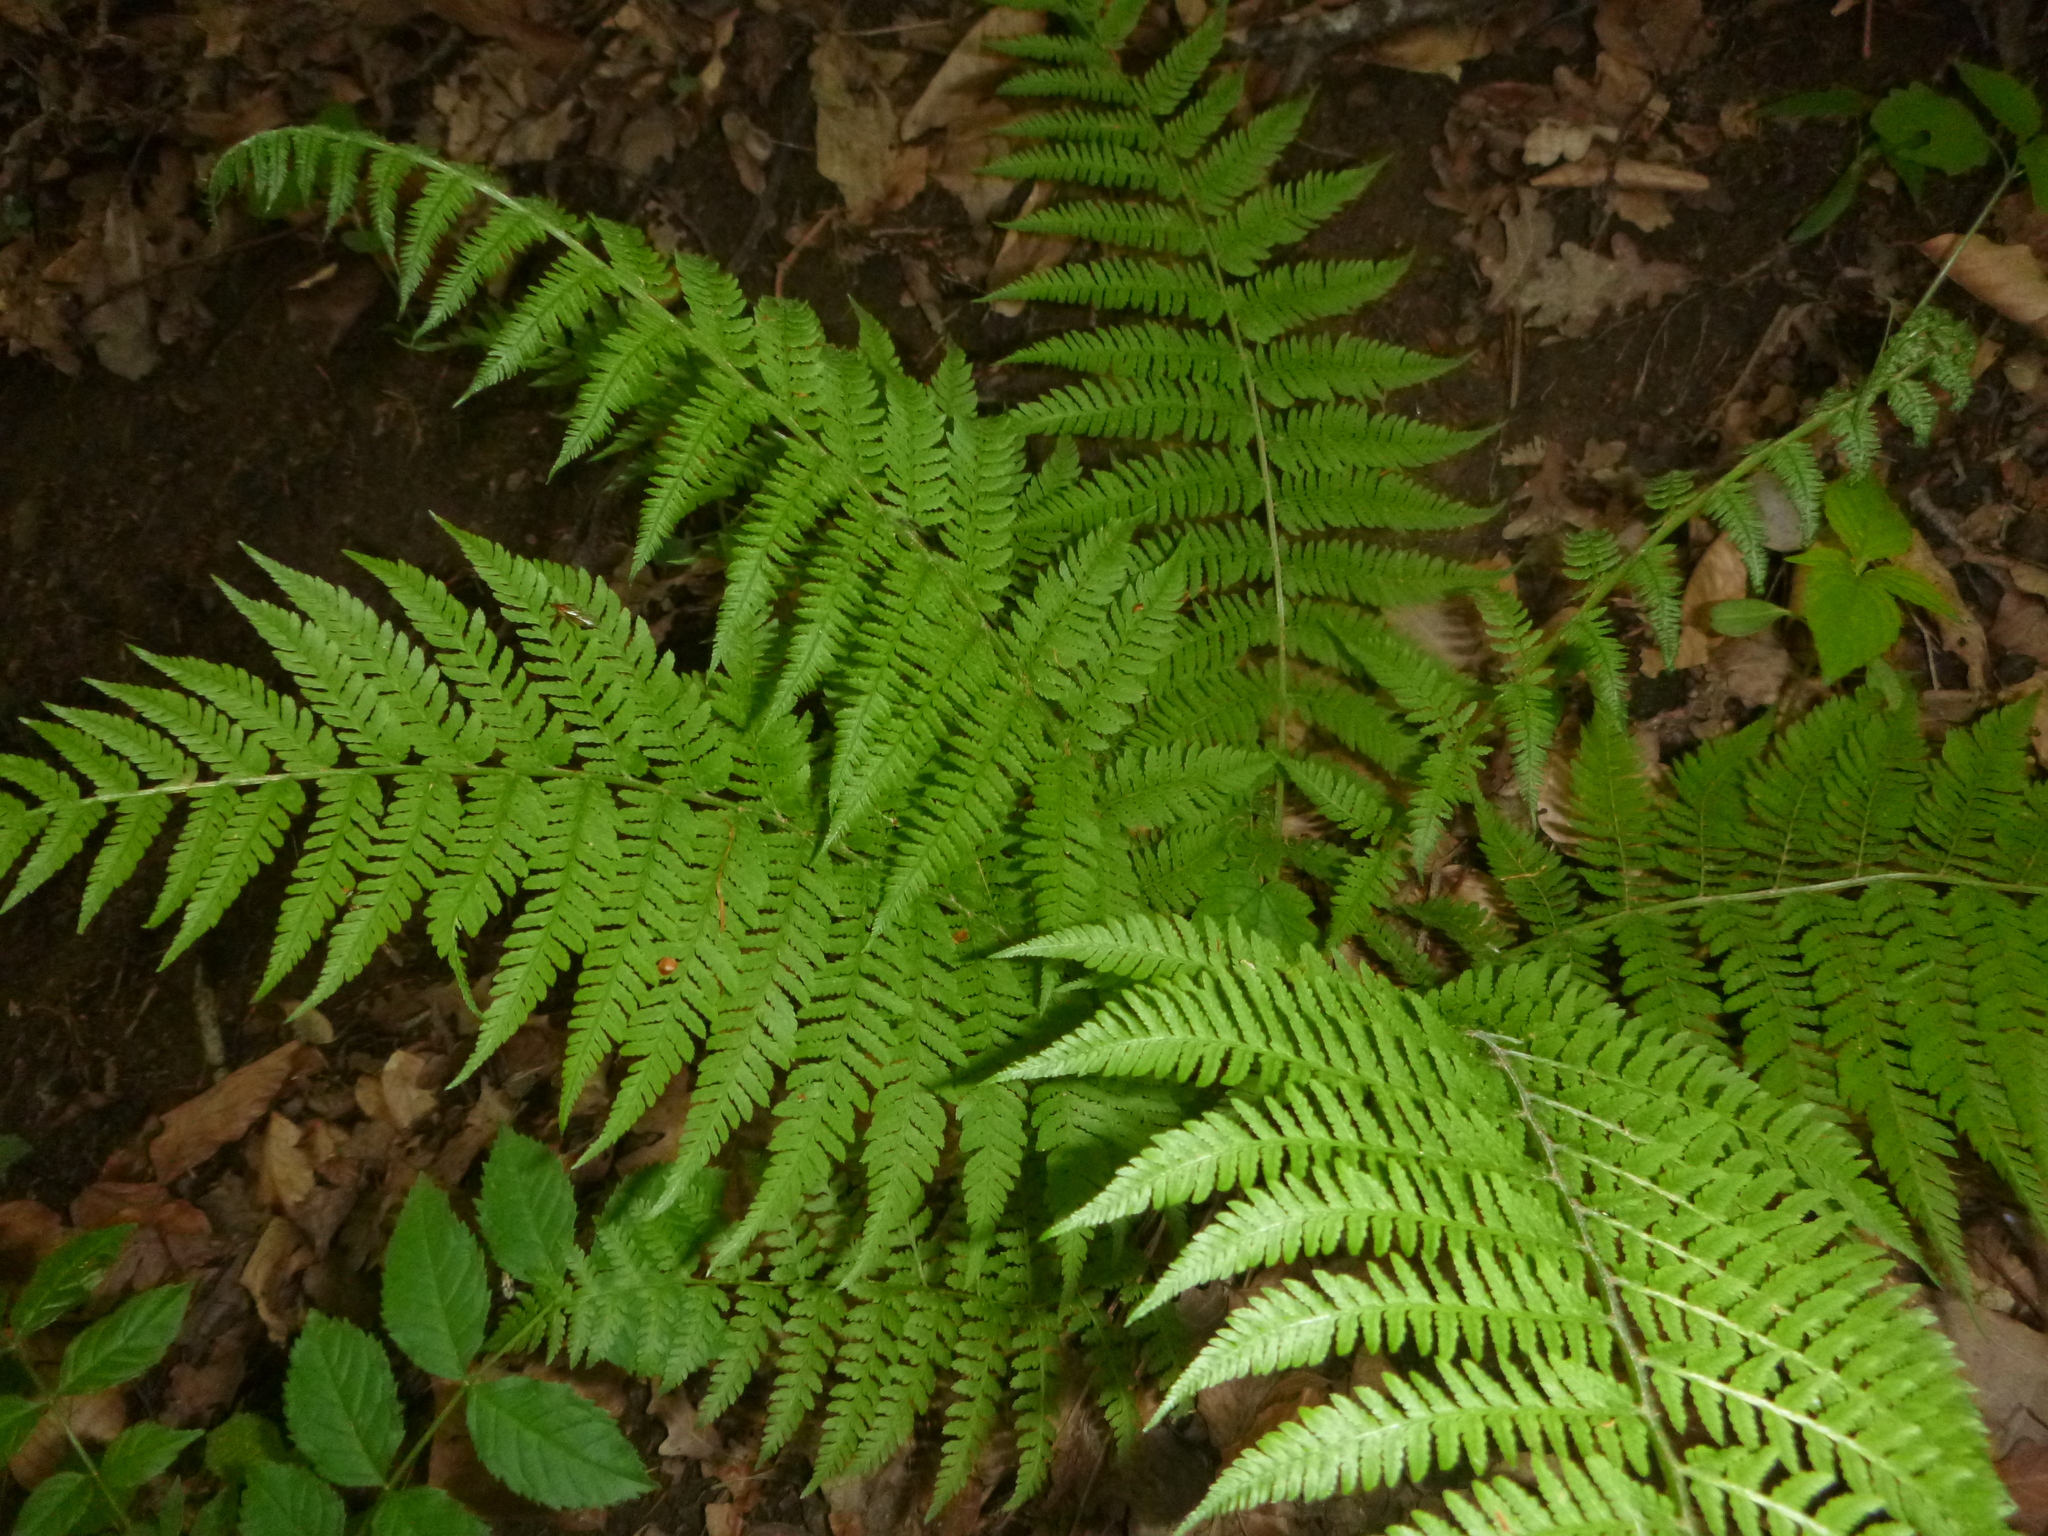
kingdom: Plantae
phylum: Tracheophyta
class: Polypodiopsida
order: Polypodiales
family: Athyriaceae
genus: Athyrium
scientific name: Athyrium filix-femina
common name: Lady fern
